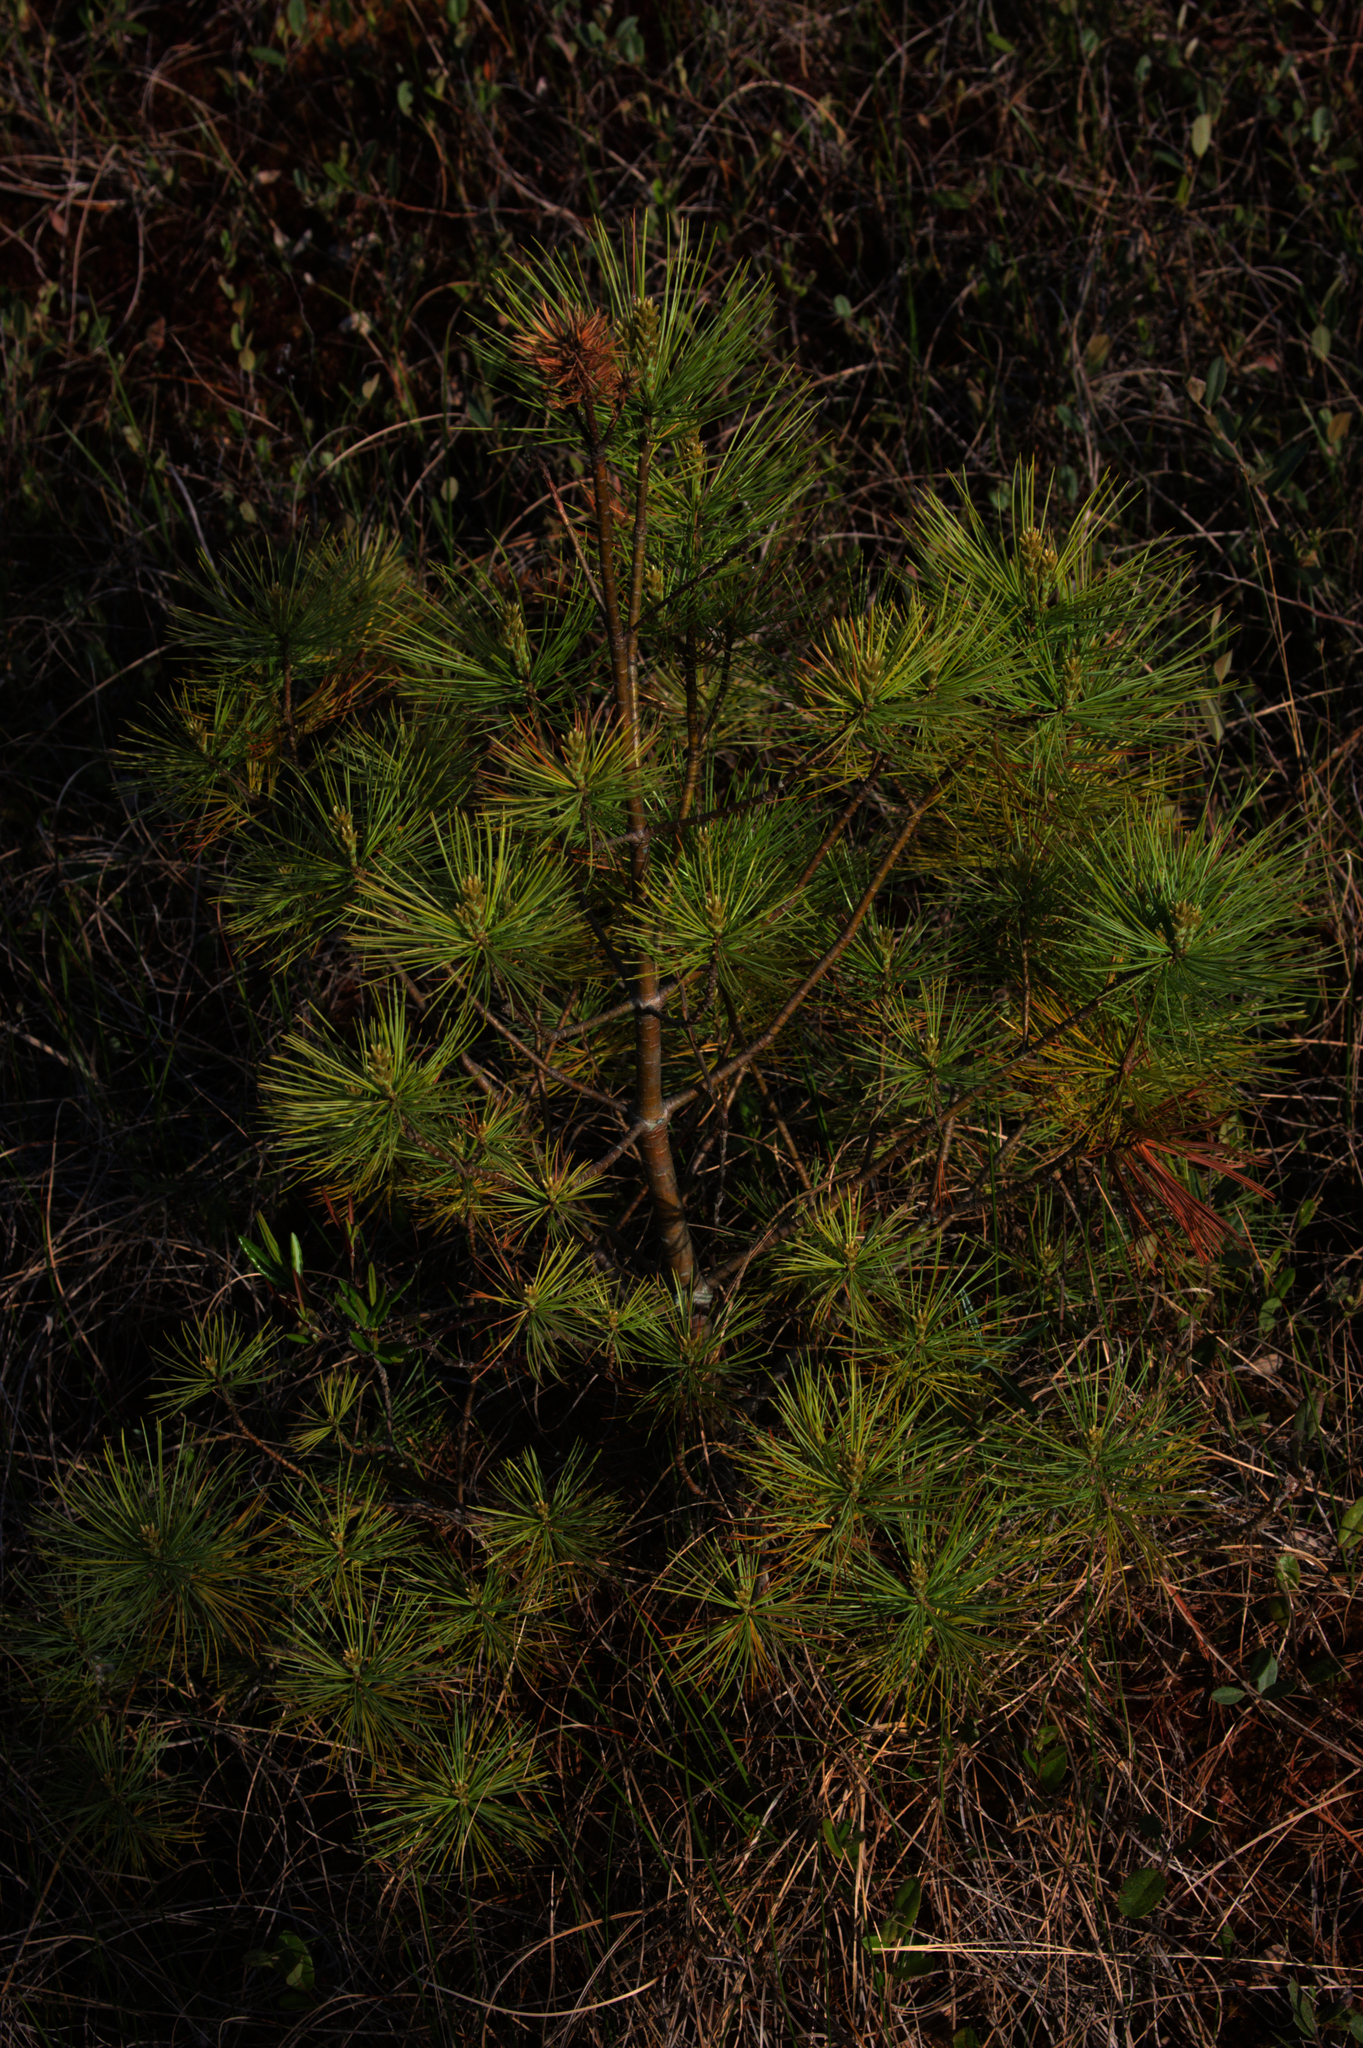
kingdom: Plantae
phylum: Tracheophyta
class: Pinopsida
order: Pinales
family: Pinaceae
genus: Pinus
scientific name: Pinus strobus
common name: Weymouth pine
